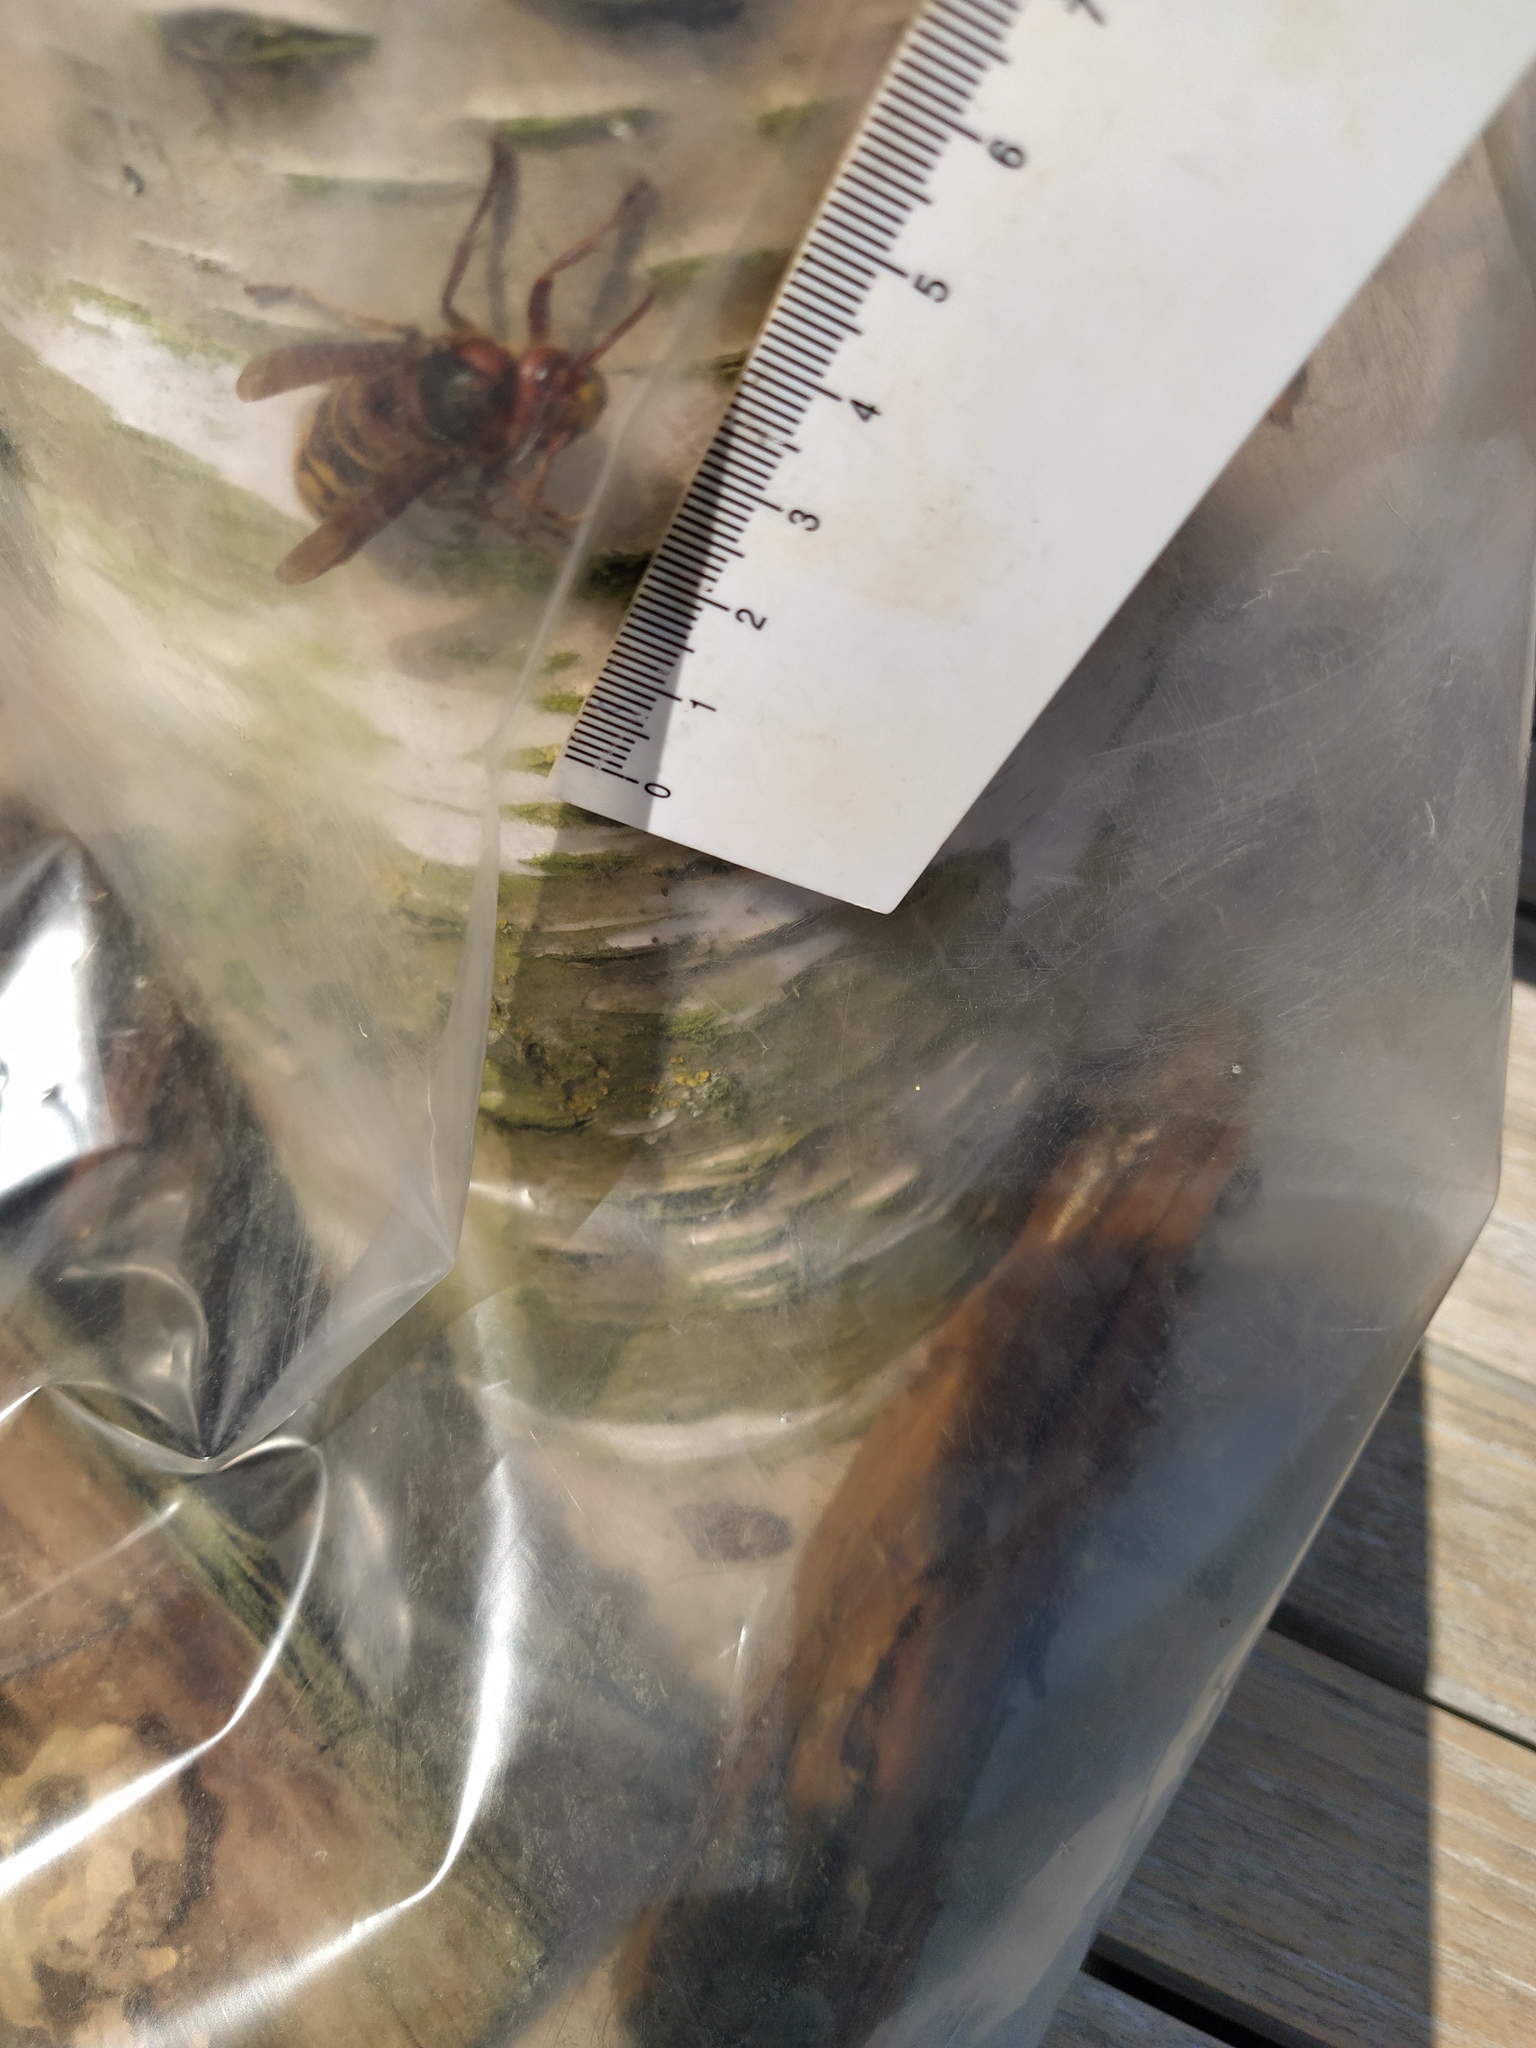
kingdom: Animalia
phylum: Arthropoda
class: Insecta
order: Hymenoptera
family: Vespidae
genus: Vespa
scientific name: Vespa crabro
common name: Hornet
